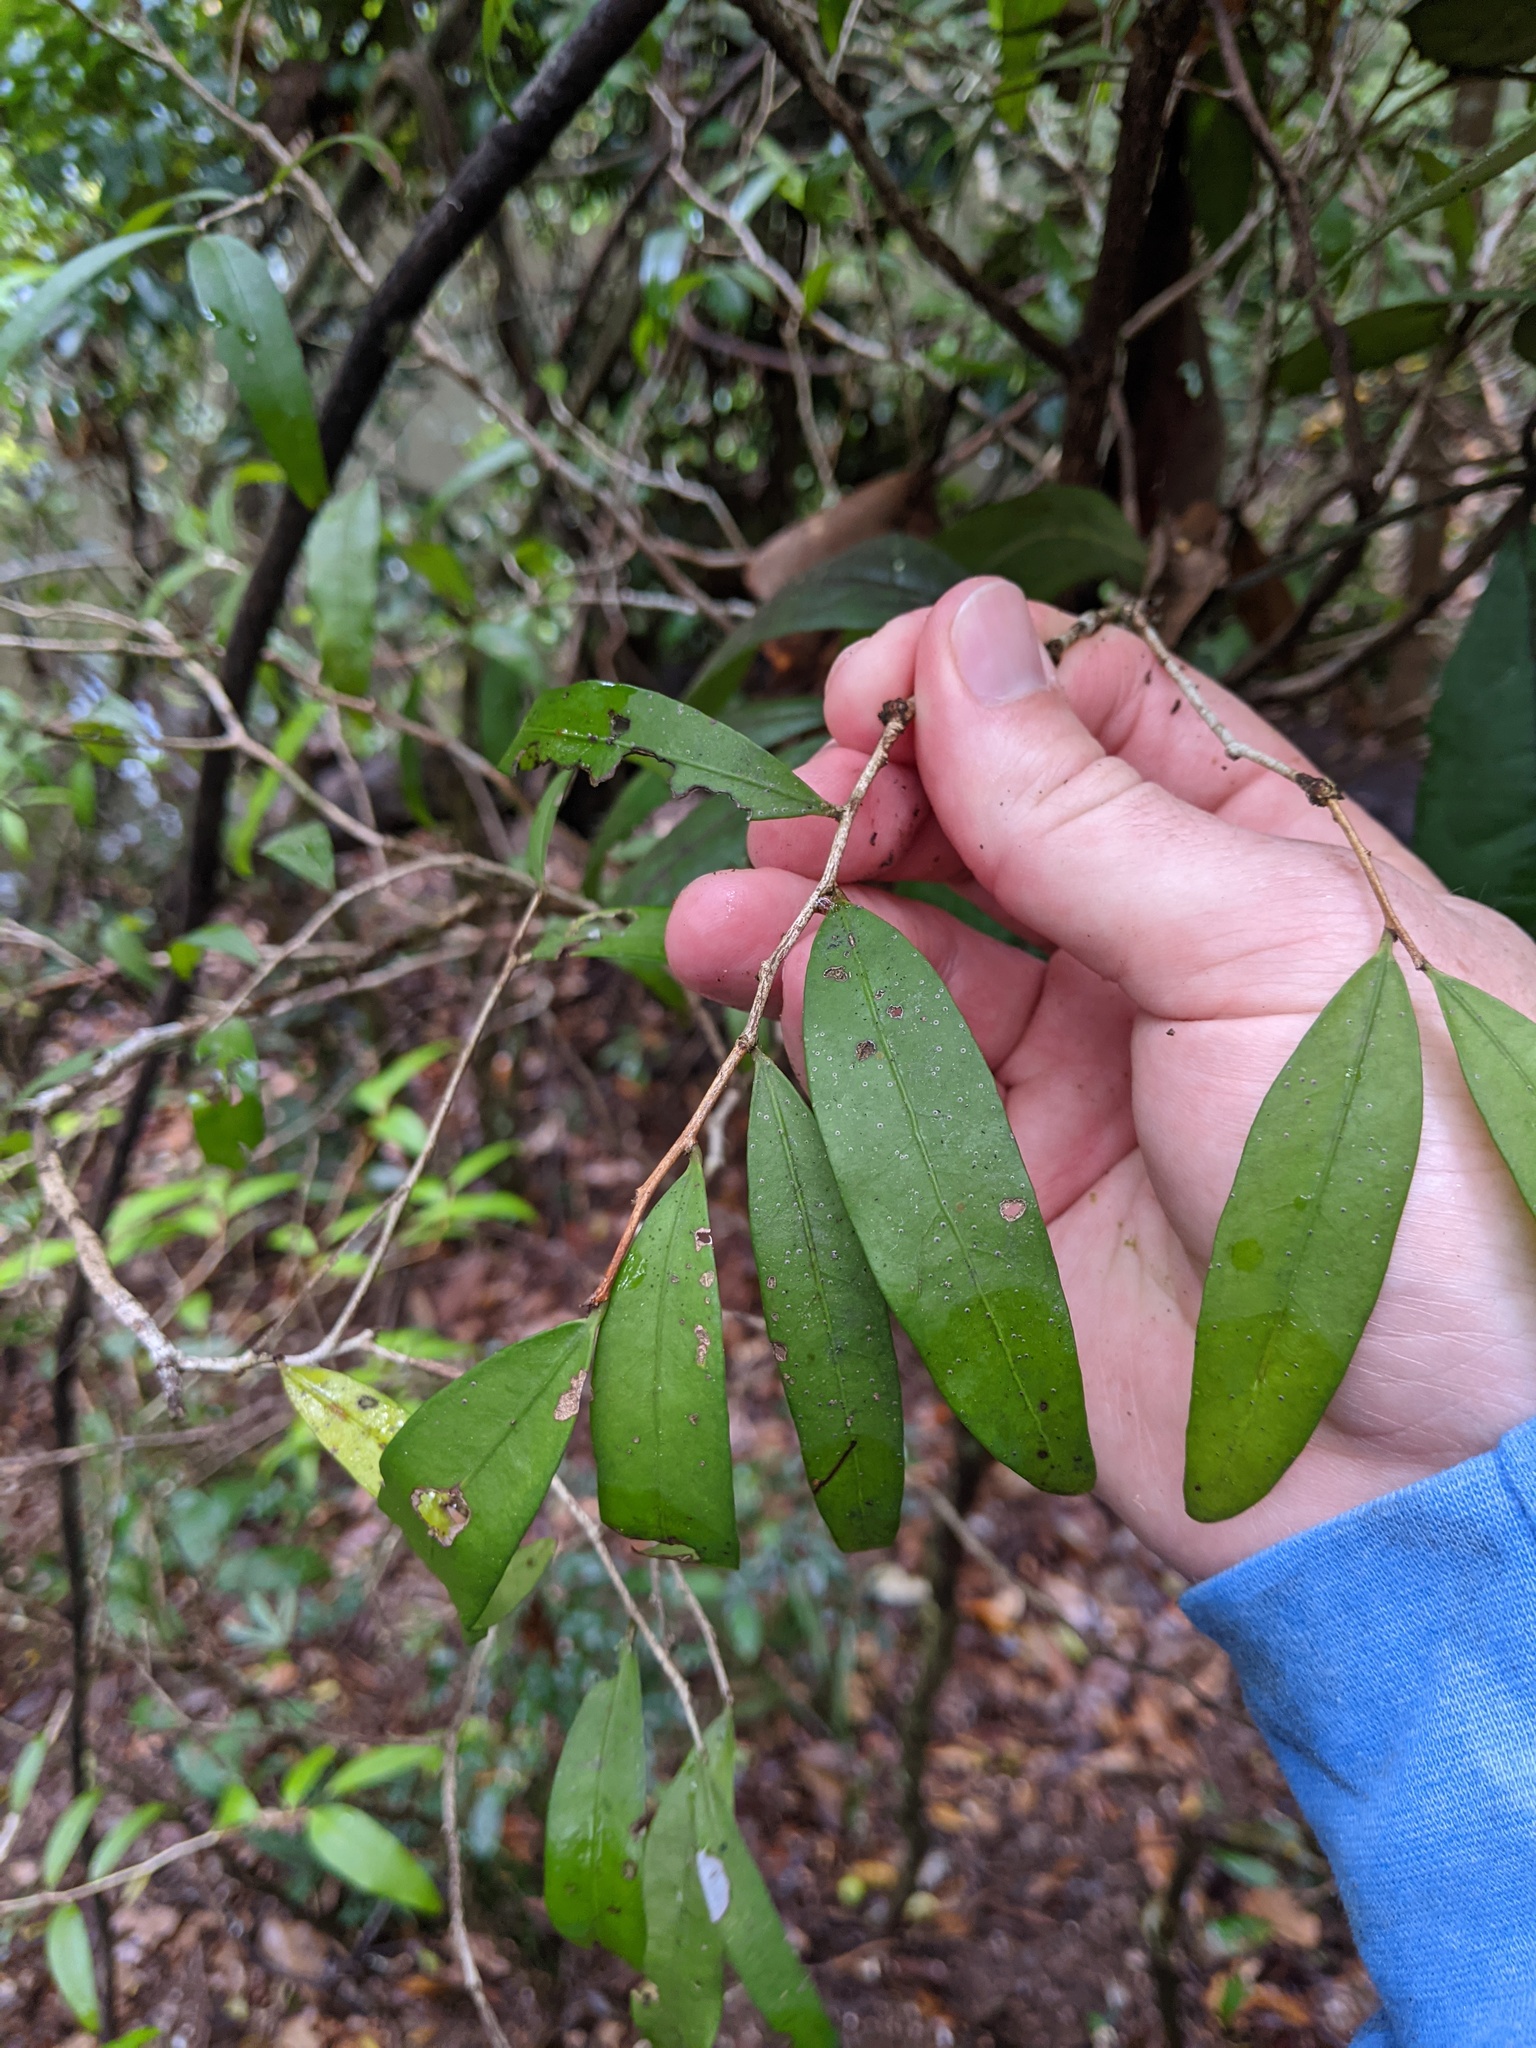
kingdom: Plantae
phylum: Tracheophyta
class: Magnoliopsida
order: Celastrales
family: Celastraceae
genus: Hedraianthera
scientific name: Hedraianthera porphyropetala
